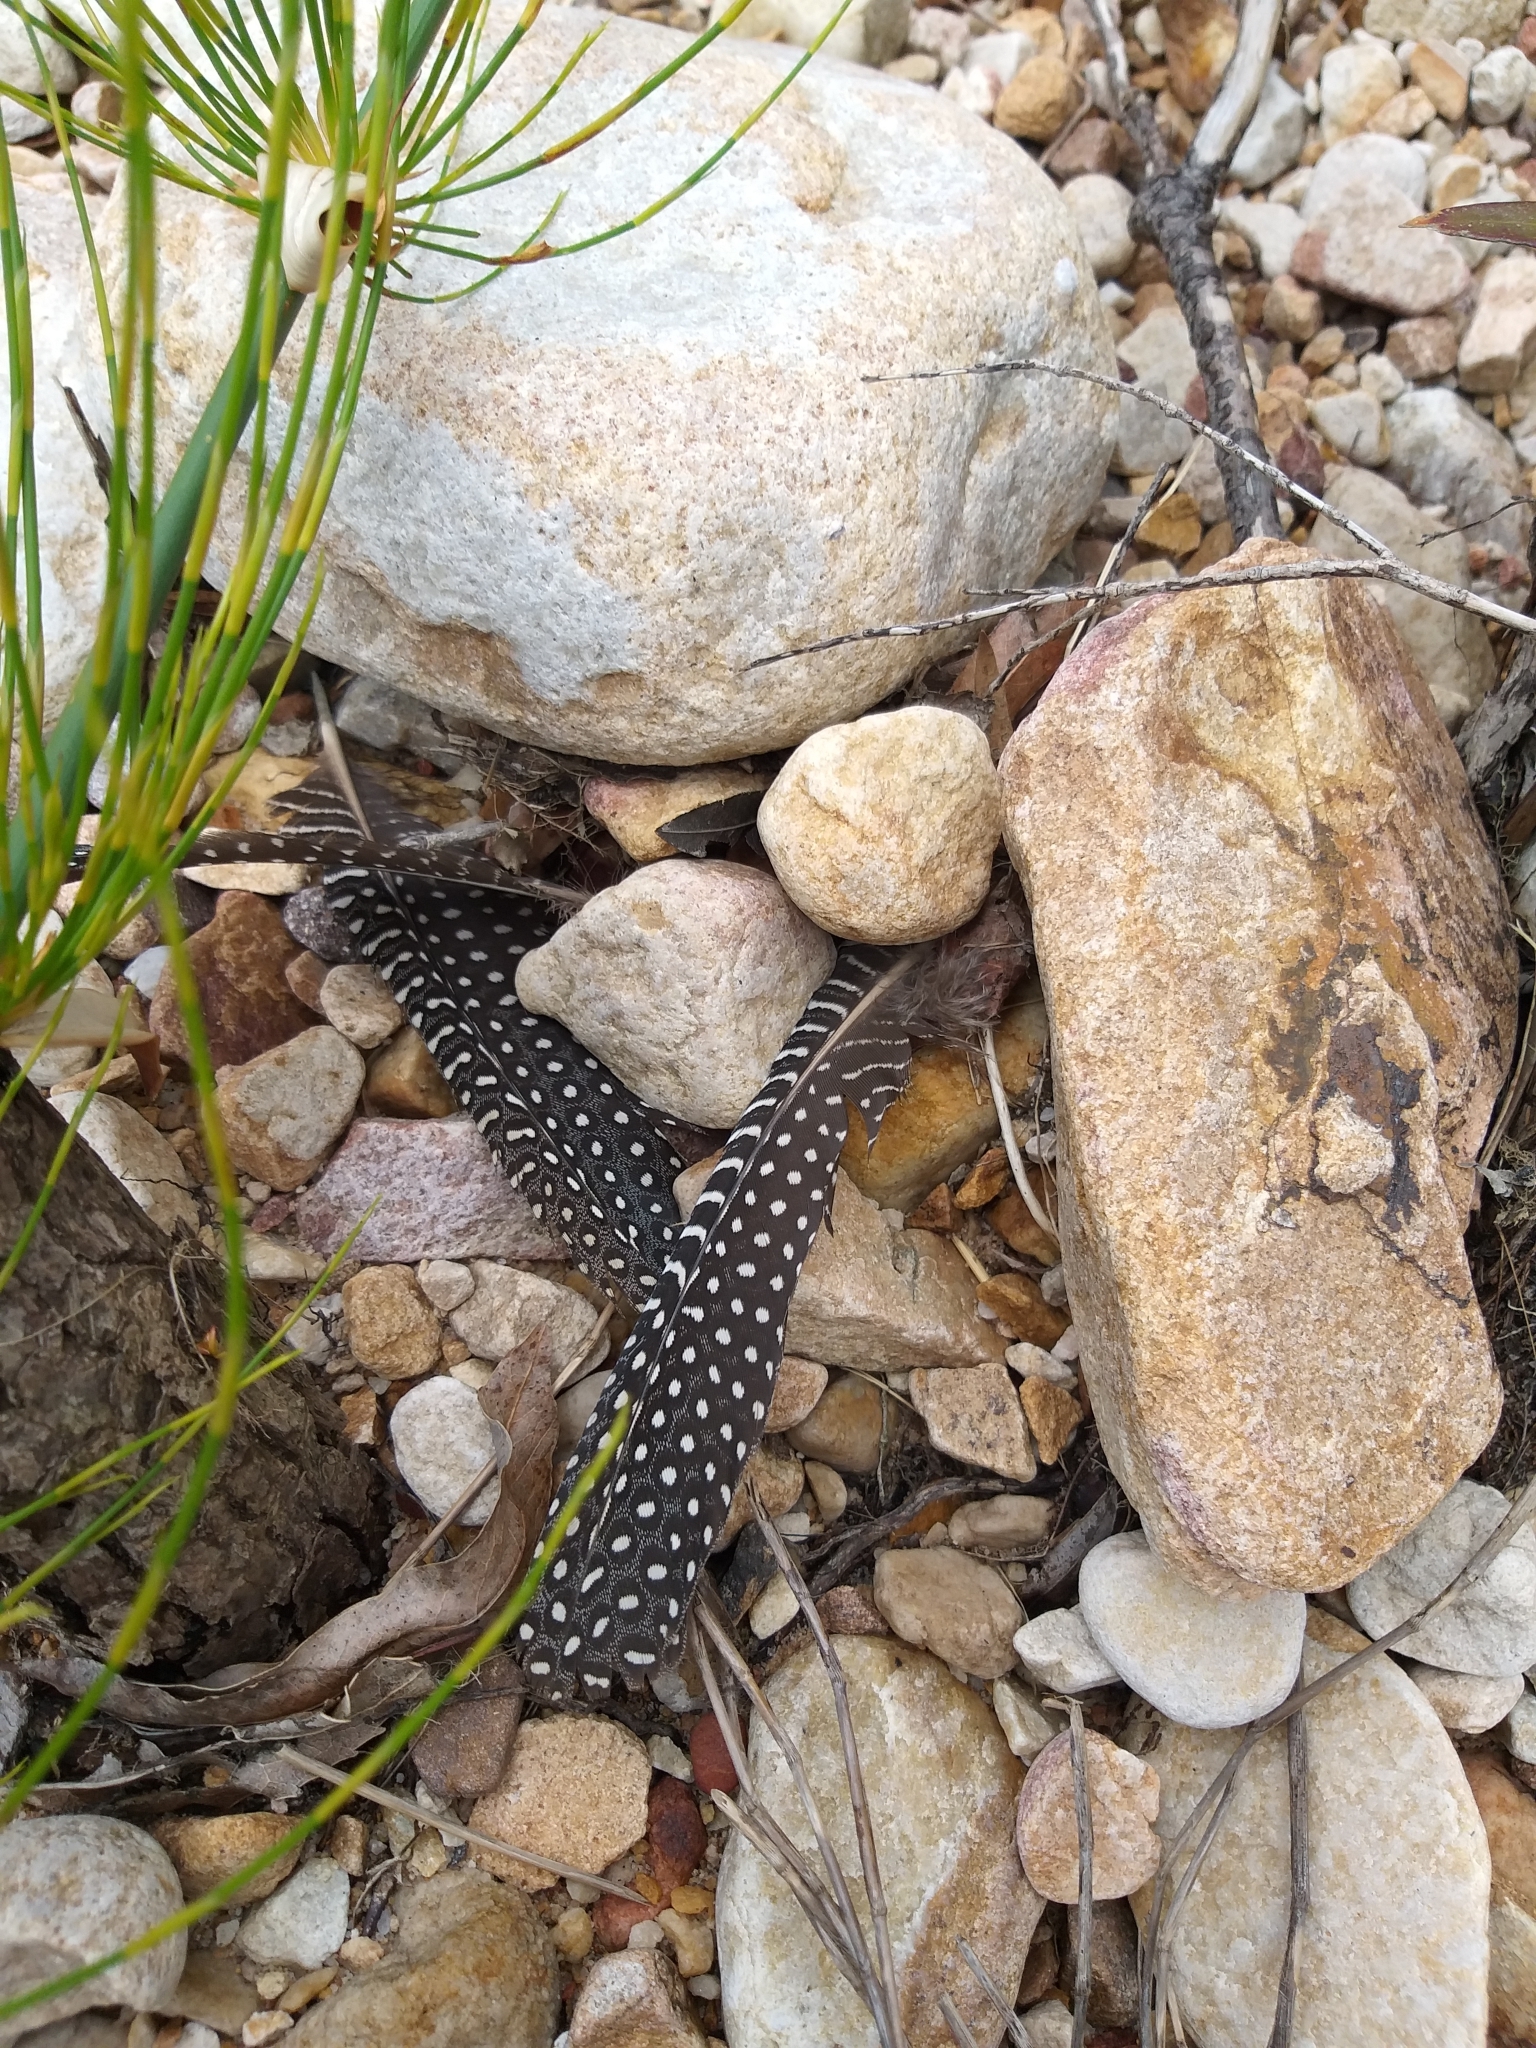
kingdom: Animalia
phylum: Chordata
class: Aves
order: Galliformes
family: Numididae
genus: Numida
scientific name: Numida meleagris
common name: Helmeted guineafowl
